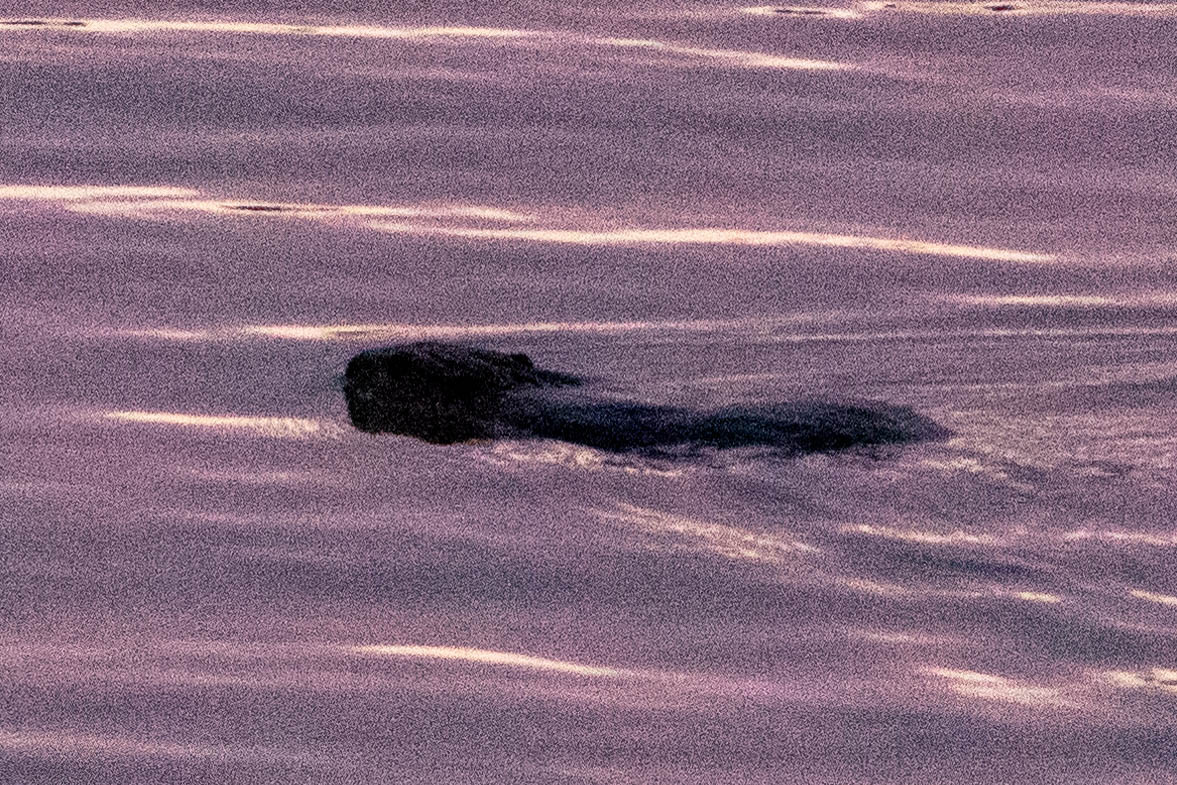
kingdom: Animalia
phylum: Chordata
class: Mammalia
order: Rodentia
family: Castoridae
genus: Castor
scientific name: Castor canadensis
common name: American beaver
